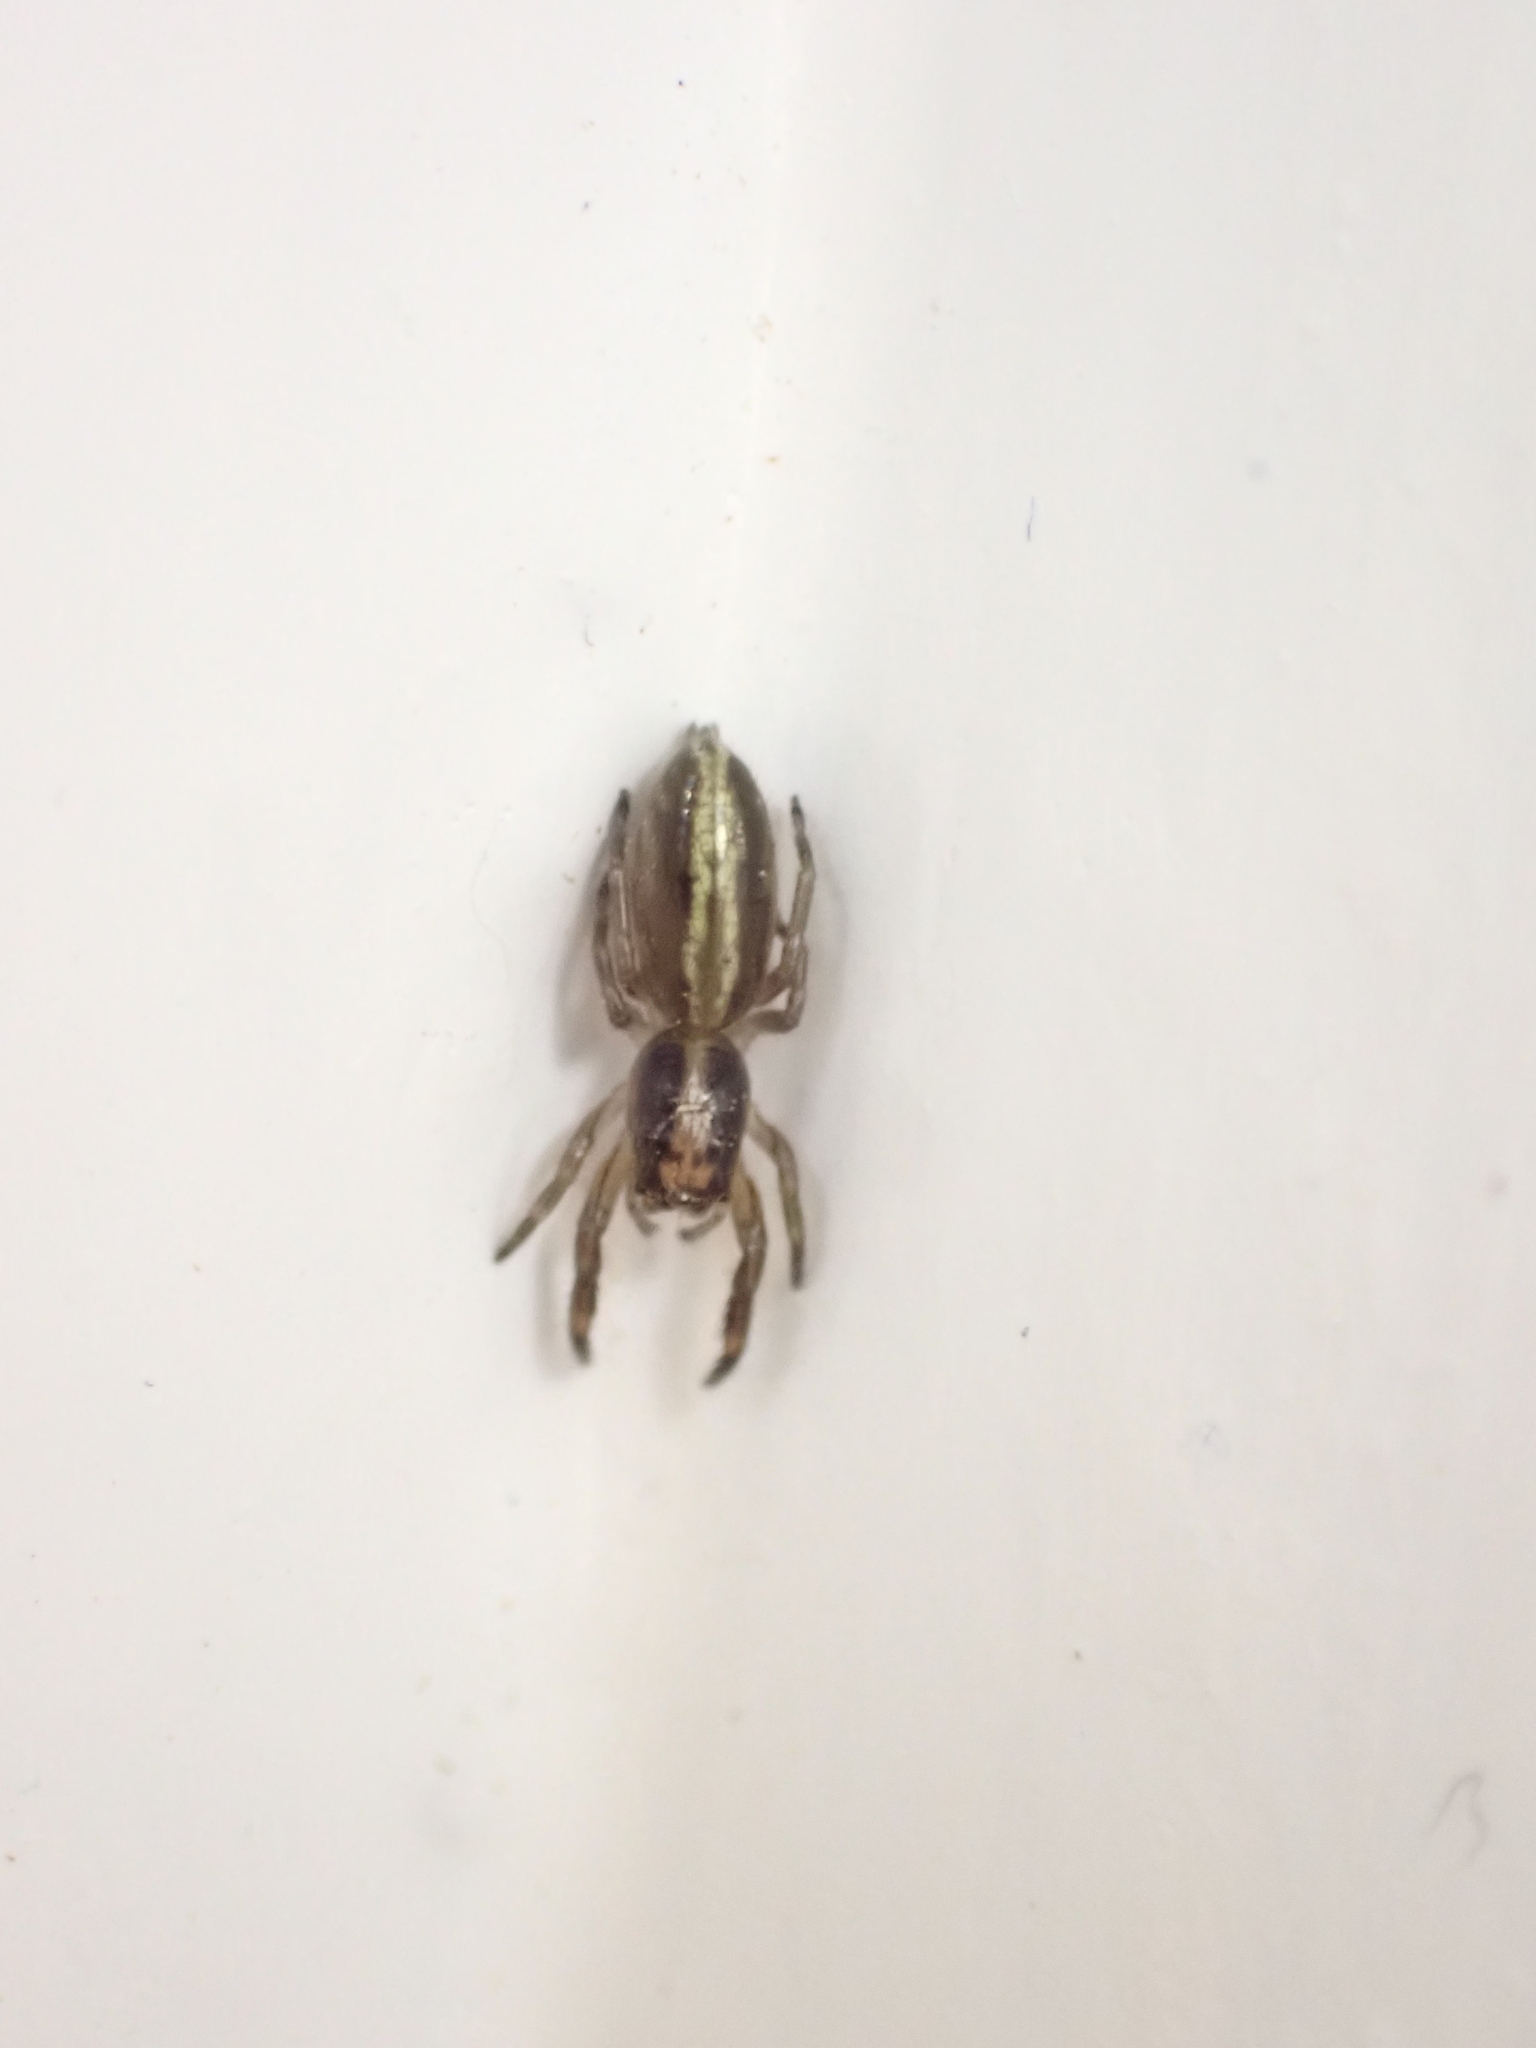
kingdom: Animalia
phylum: Arthropoda
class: Arachnida
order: Araneae
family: Salticidae
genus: Trite
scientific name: Trite planiceps
